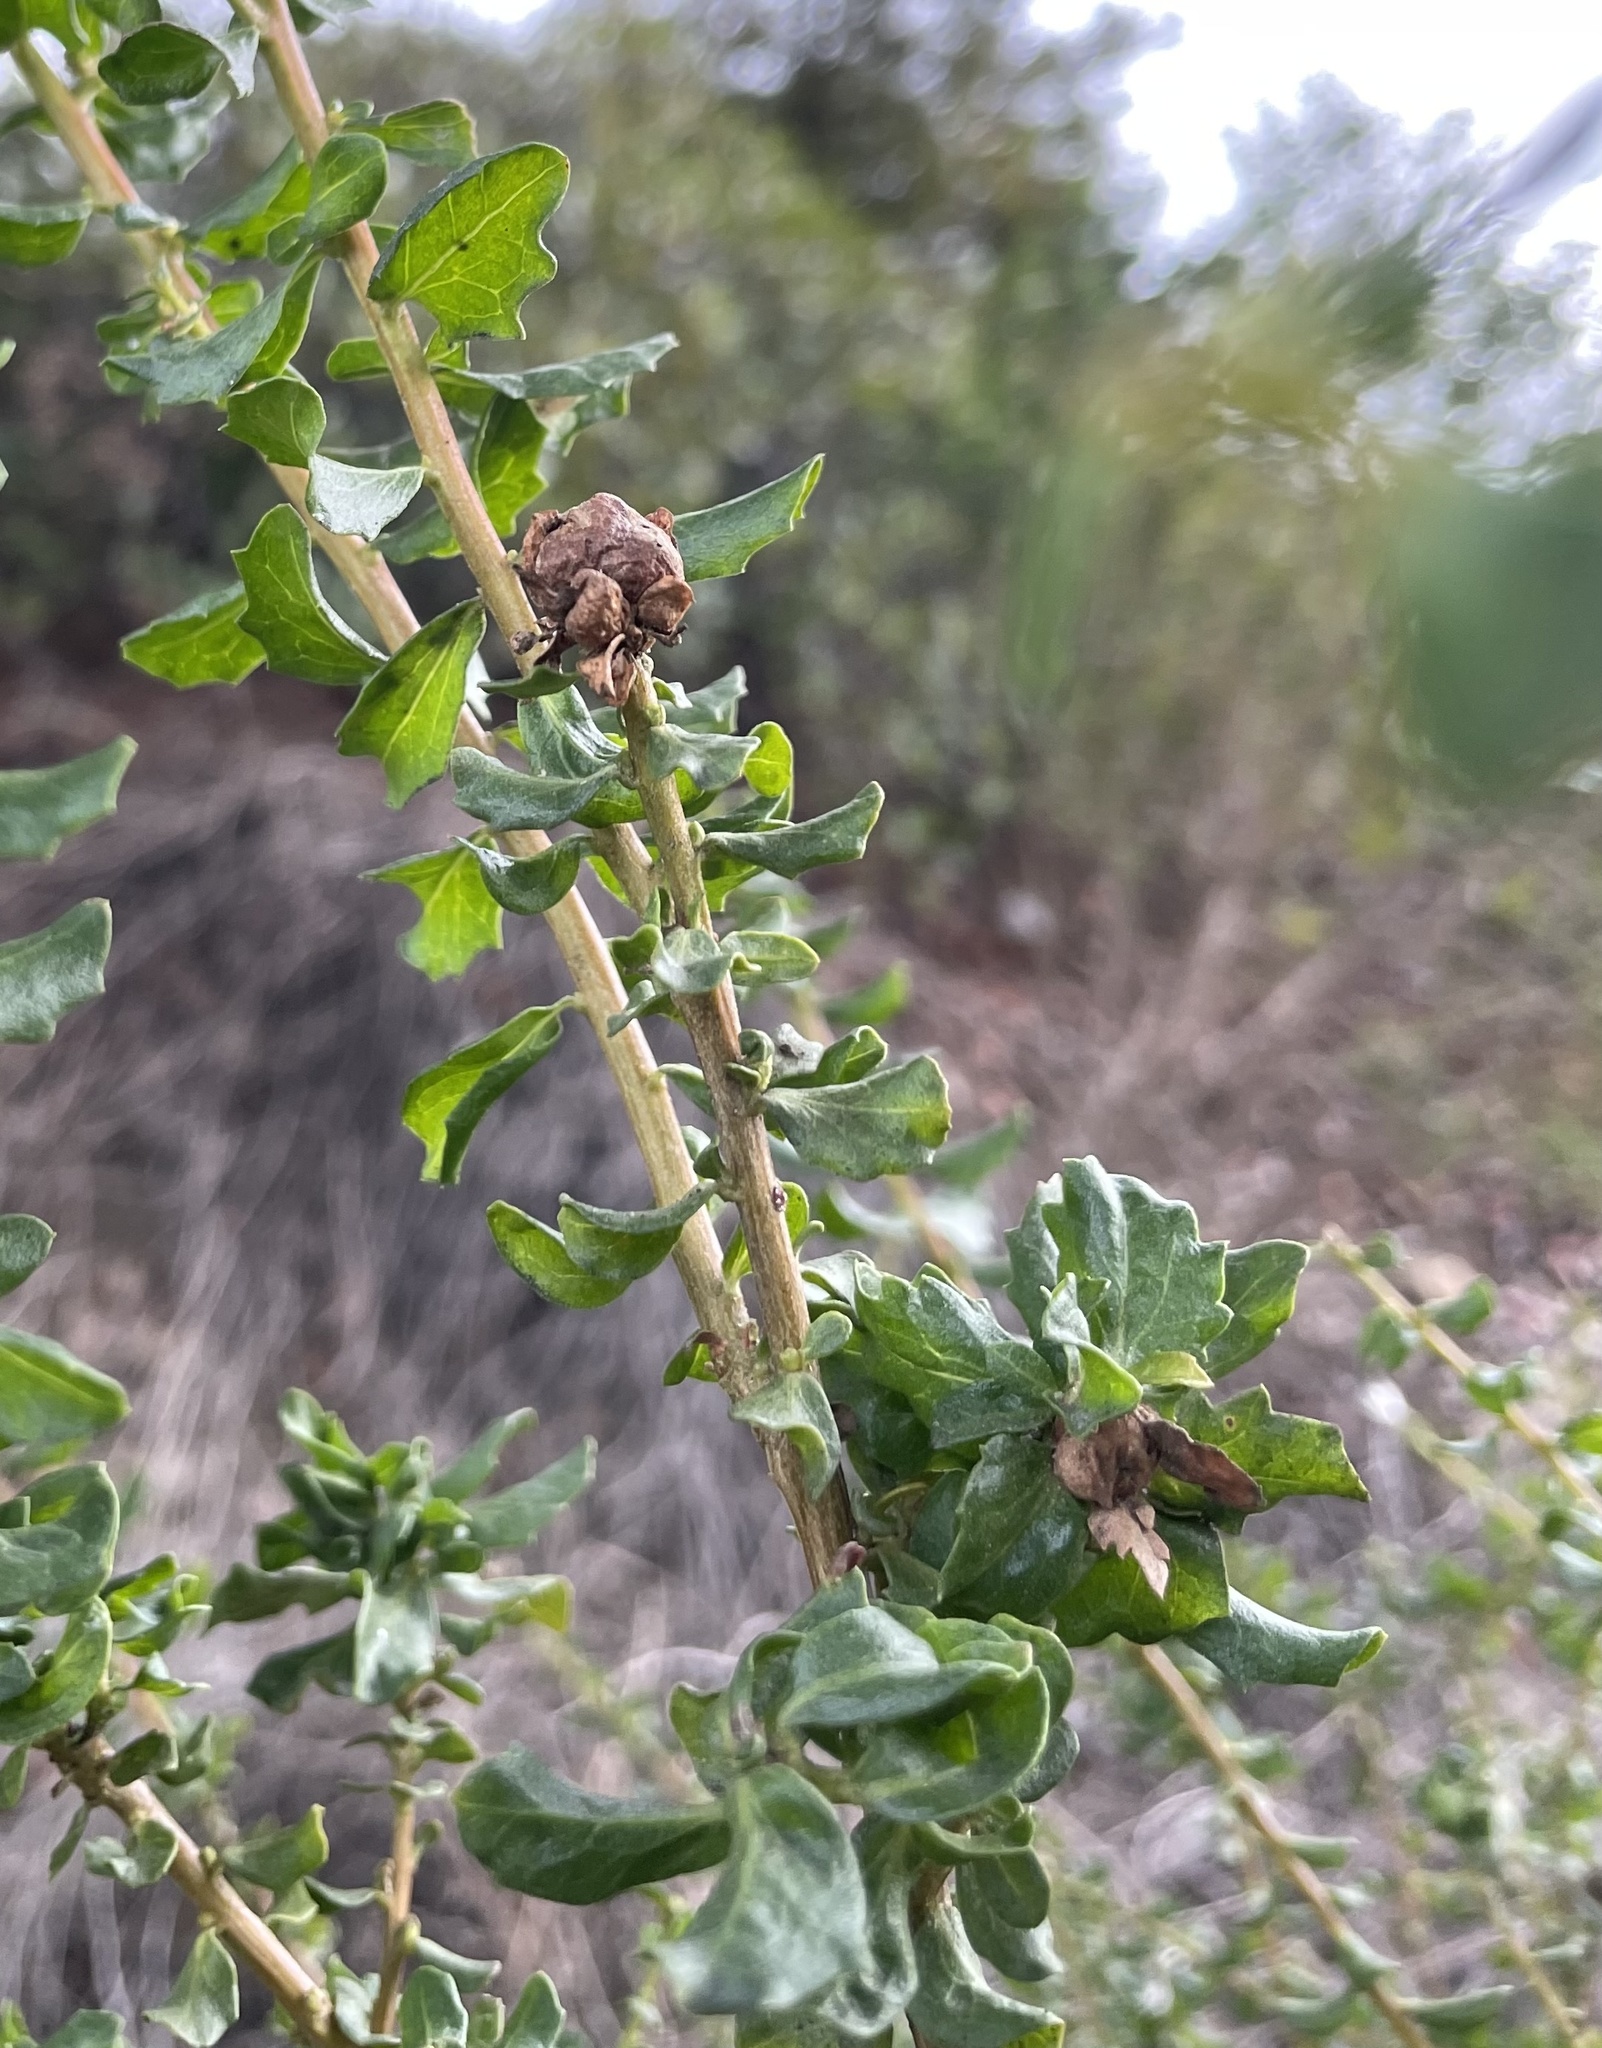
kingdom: Animalia
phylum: Arthropoda
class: Insecta
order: Diptera
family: Cecidomyiidae
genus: Rhopalomyia
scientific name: Rhopalomyia californica
